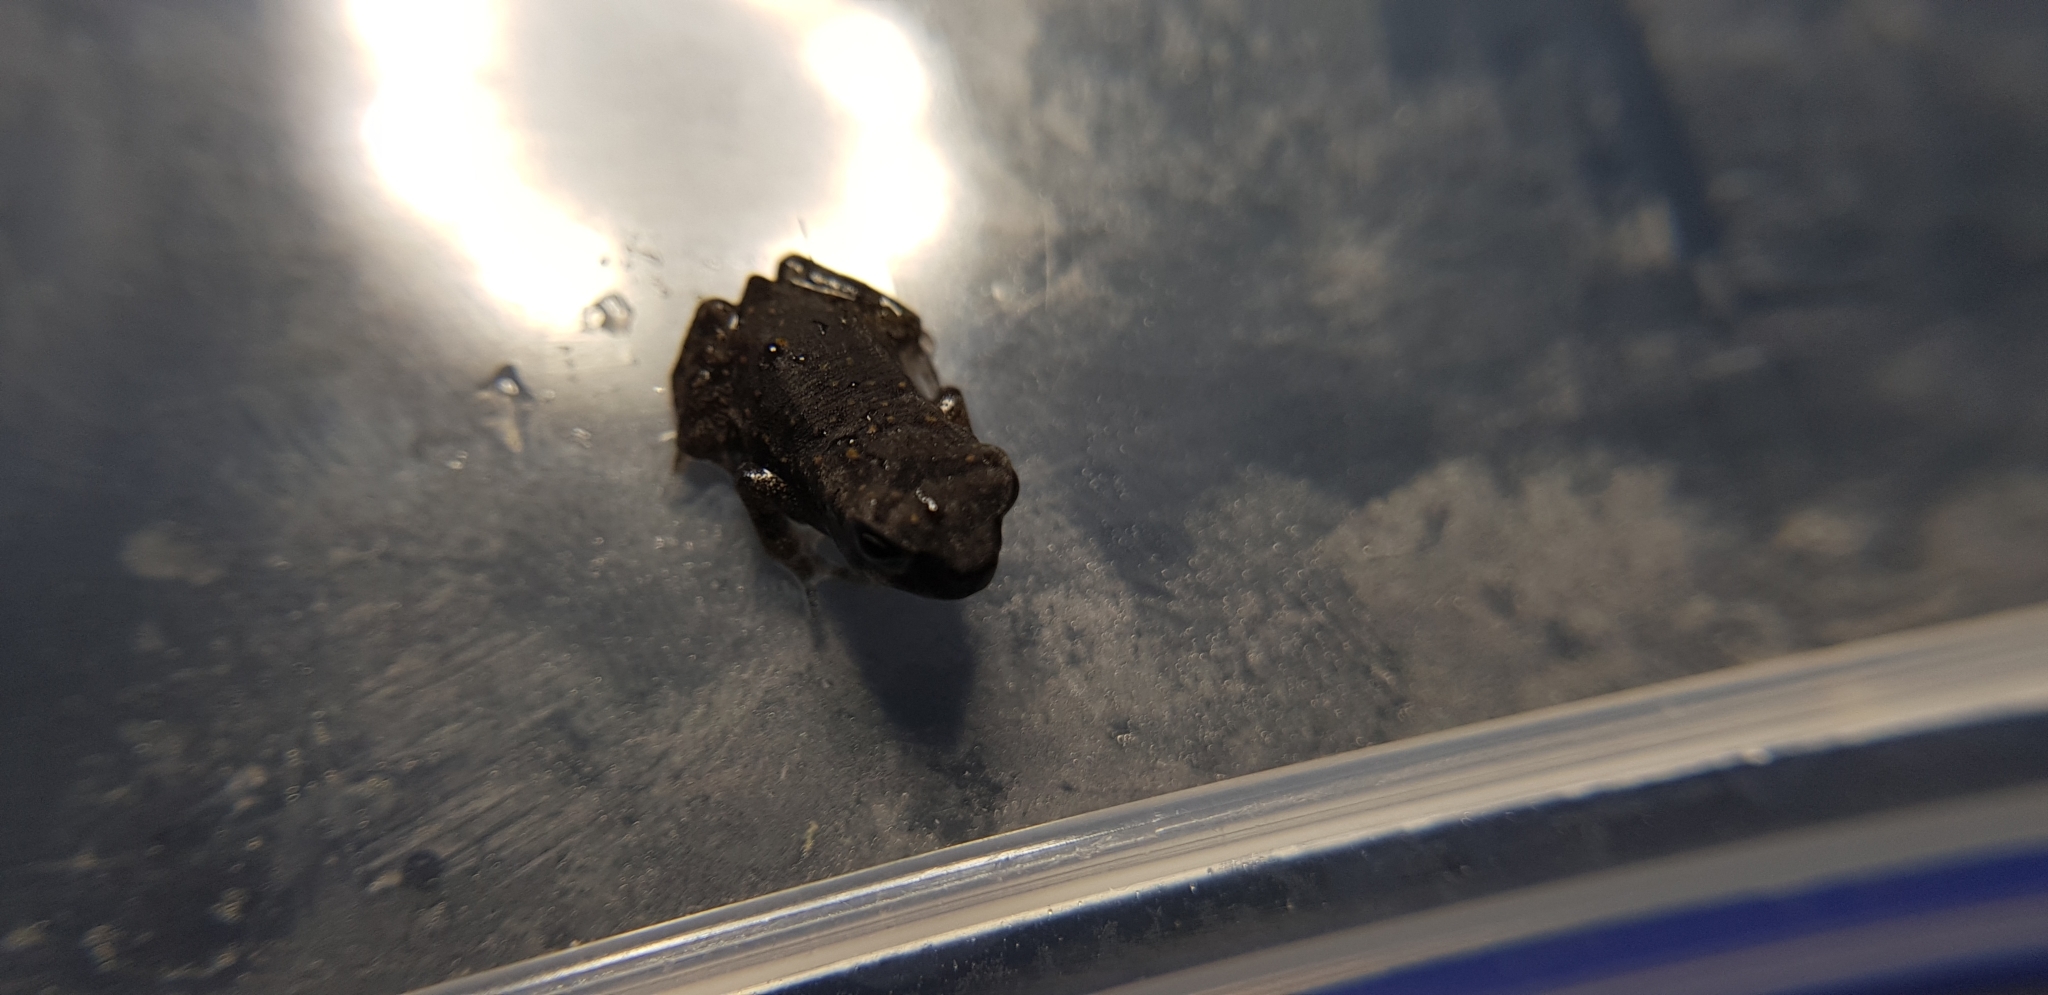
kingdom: Animalia
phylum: Chordata
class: Amphibia
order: Anura
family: Bufonidae
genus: Rhinella
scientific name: Rhinella marina
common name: Cane toad
